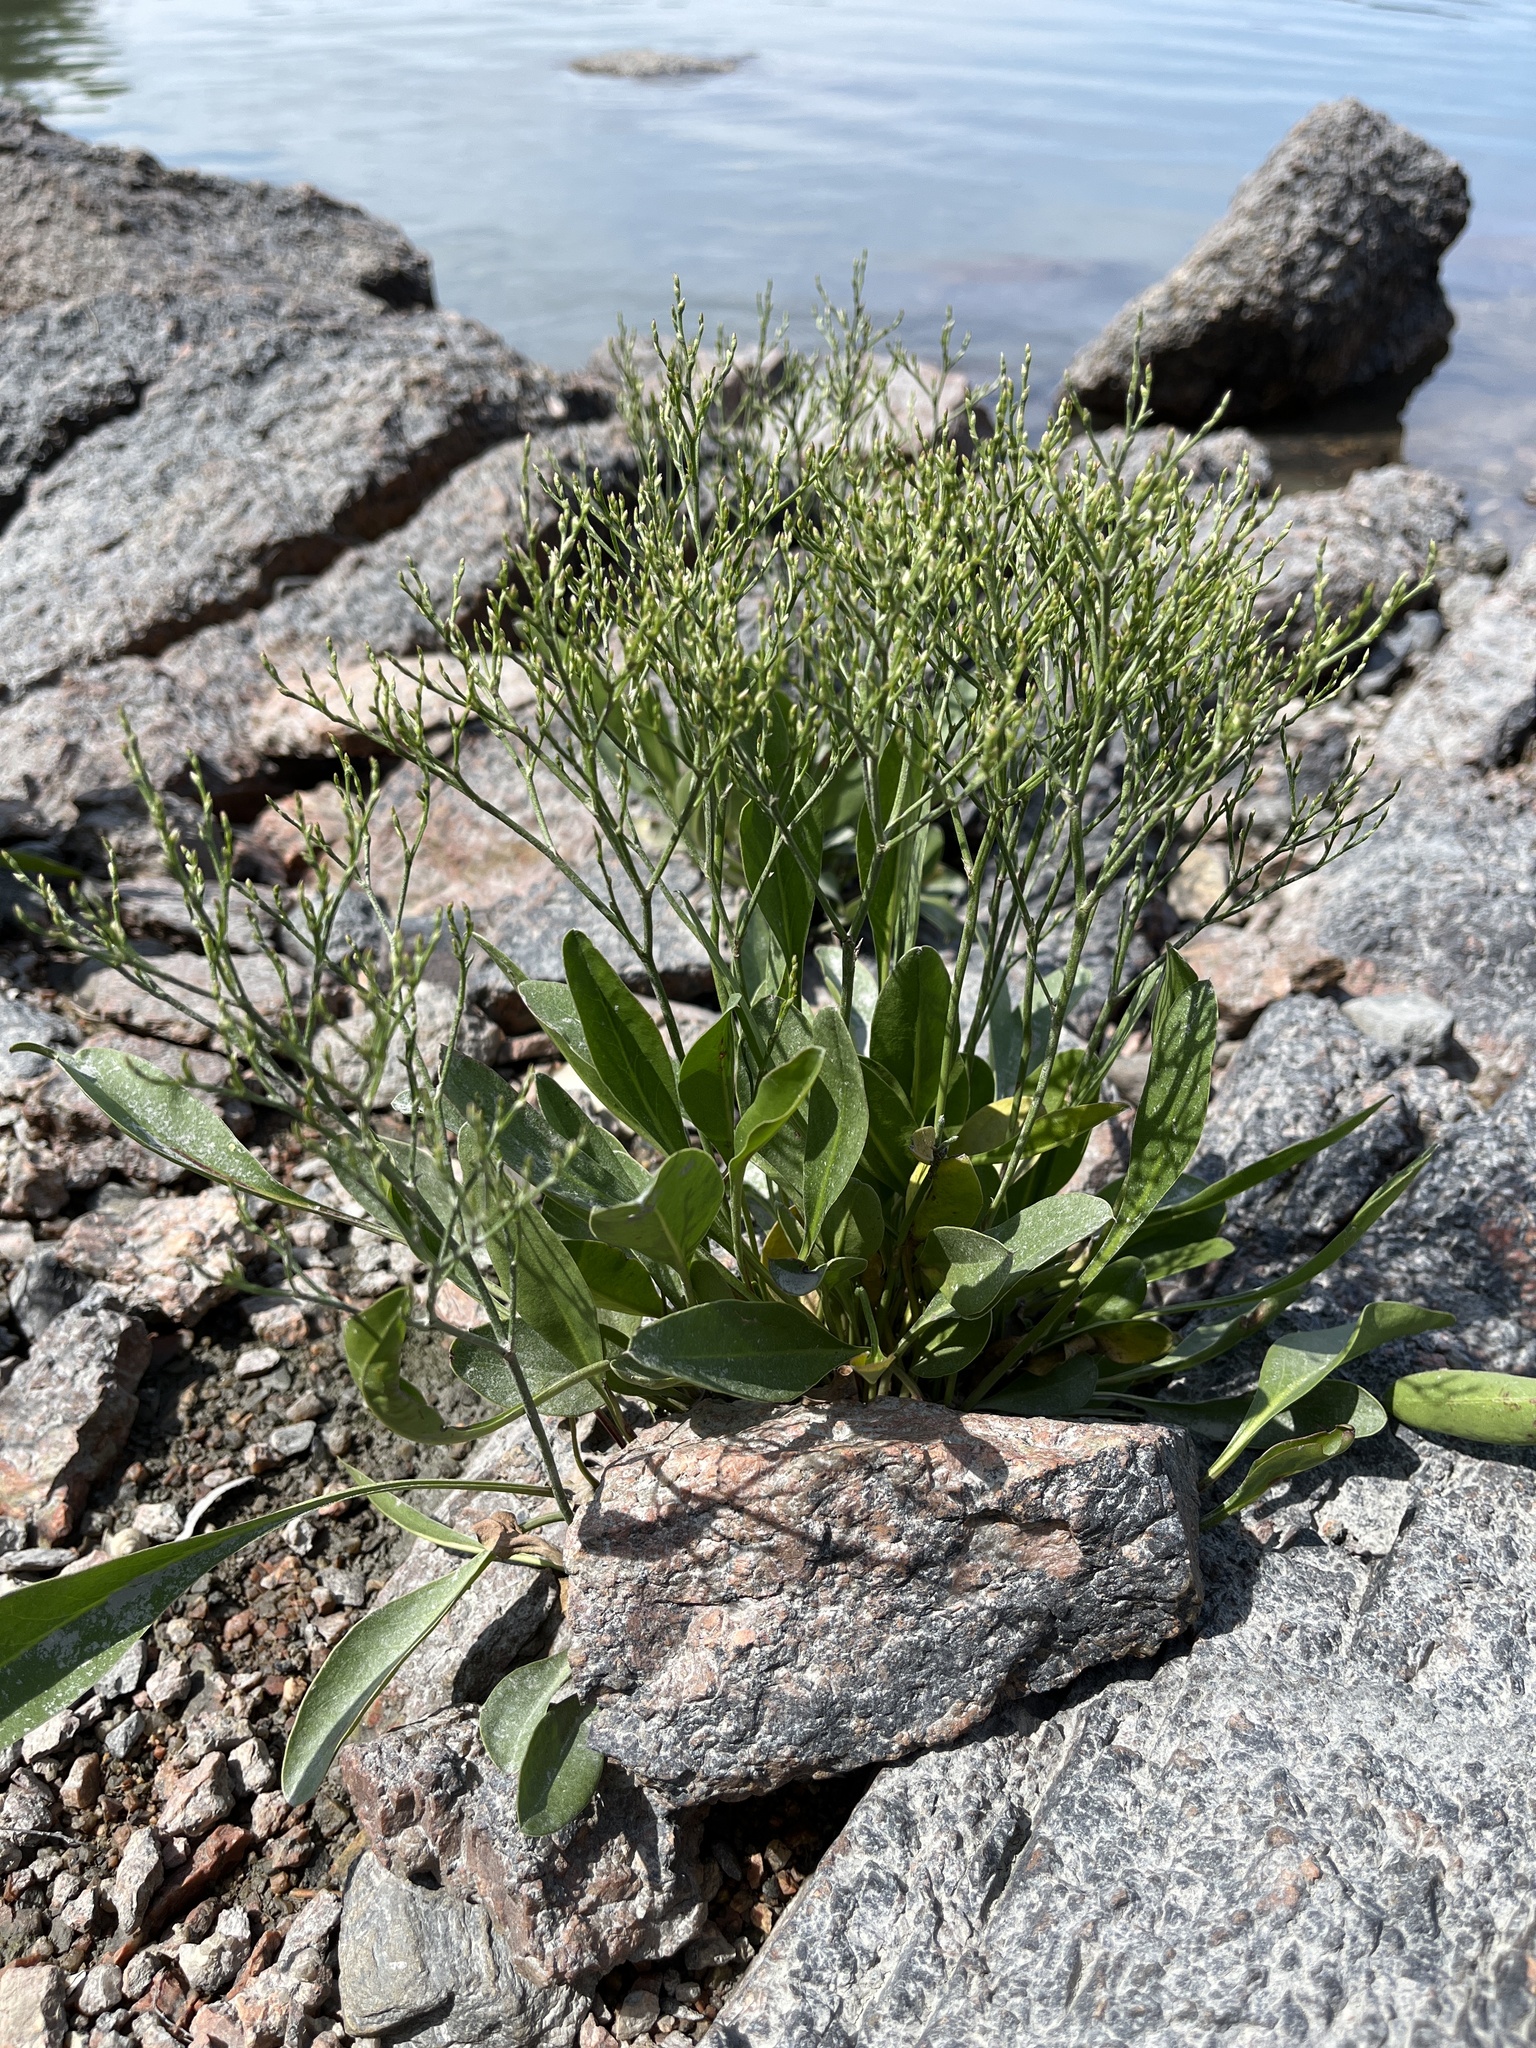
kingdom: Plantae
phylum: Tracheophyta
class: Magnoliopsida
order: Caryophyllales
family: Plumbaginaceae
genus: Limonium
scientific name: Limonium carolinianum
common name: Carolina sea lavender
